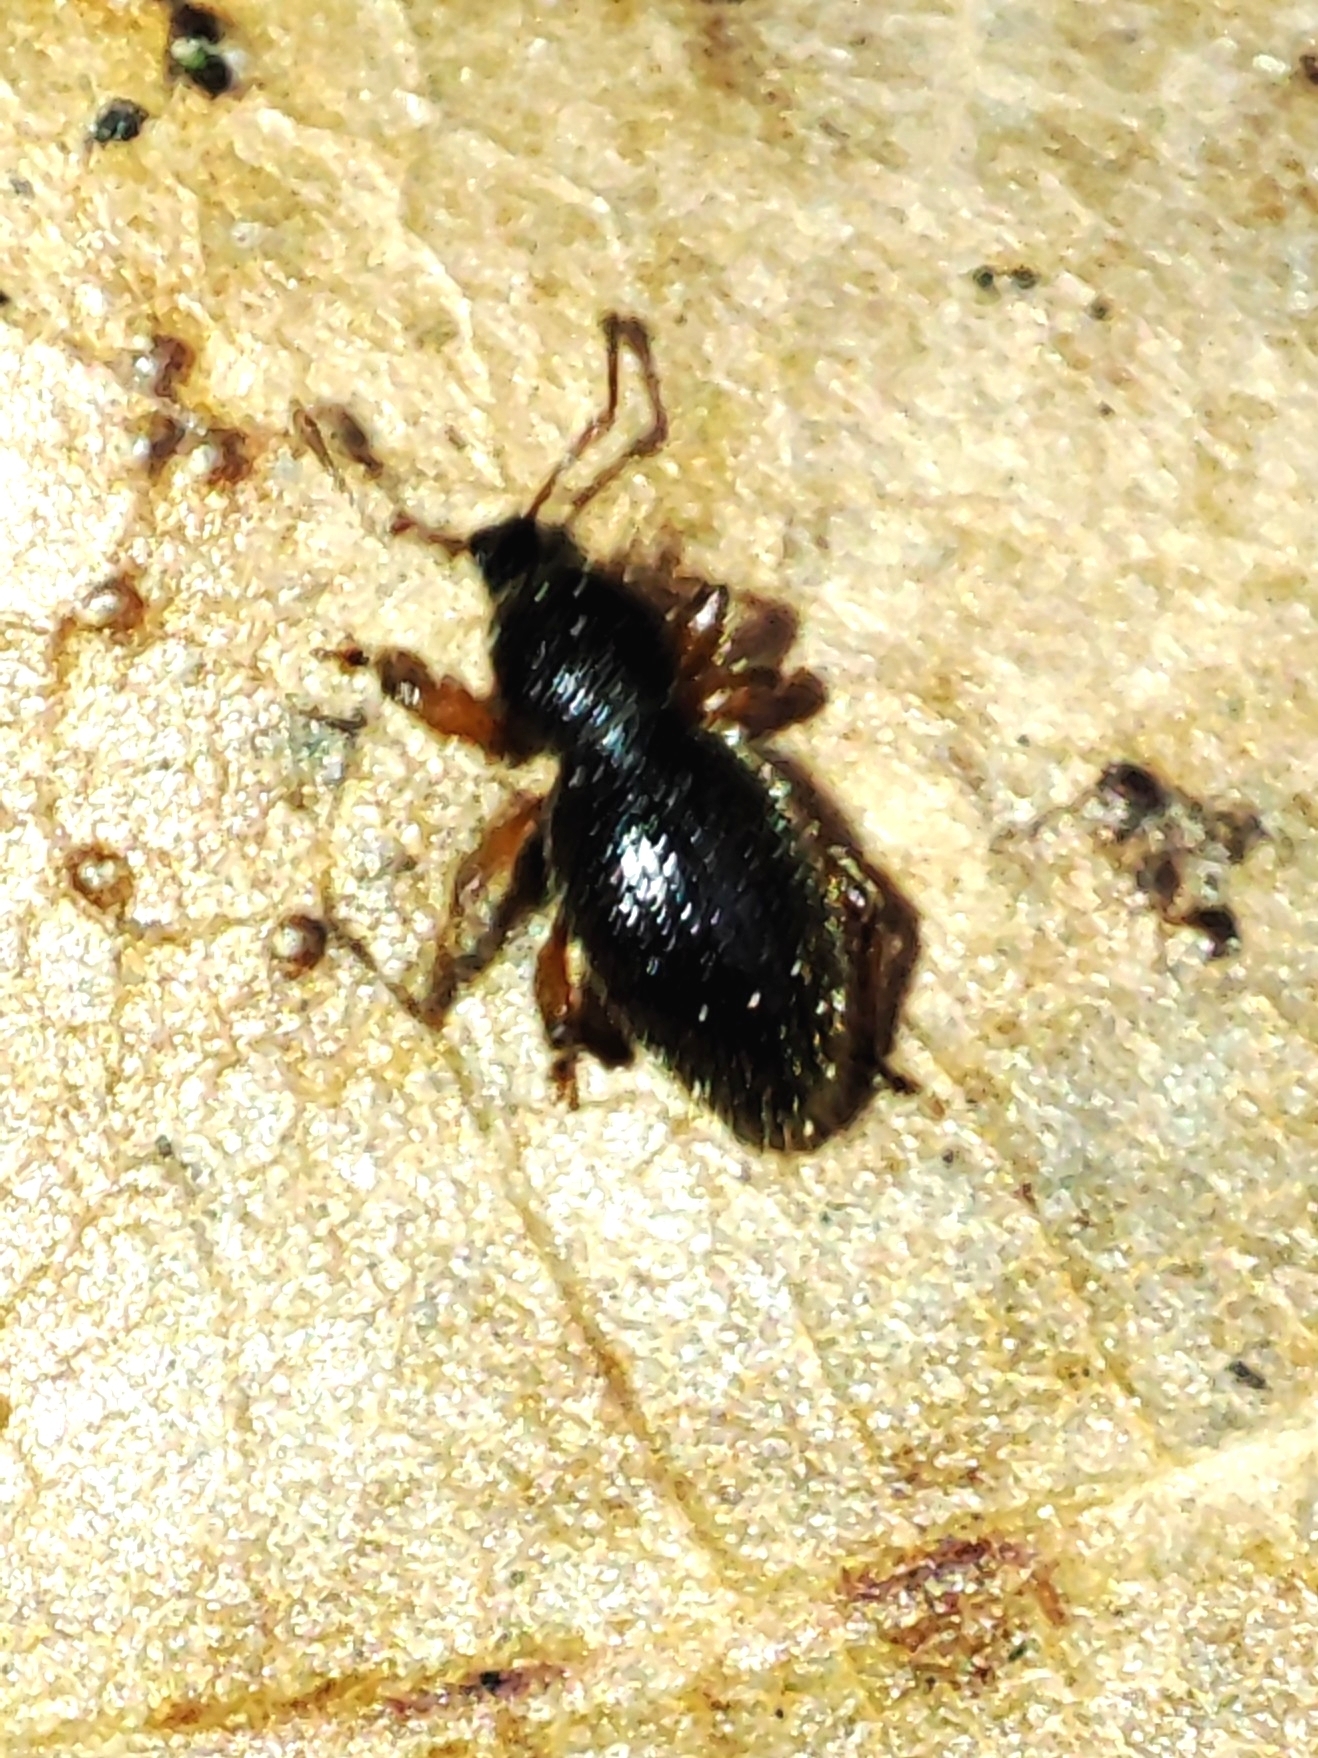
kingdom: Animalia
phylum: Arthropoda
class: Insecta
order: Coleoptera
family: Curculionidae
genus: Exomias
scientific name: Exomias pellucidus
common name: Hairy spider weevil
